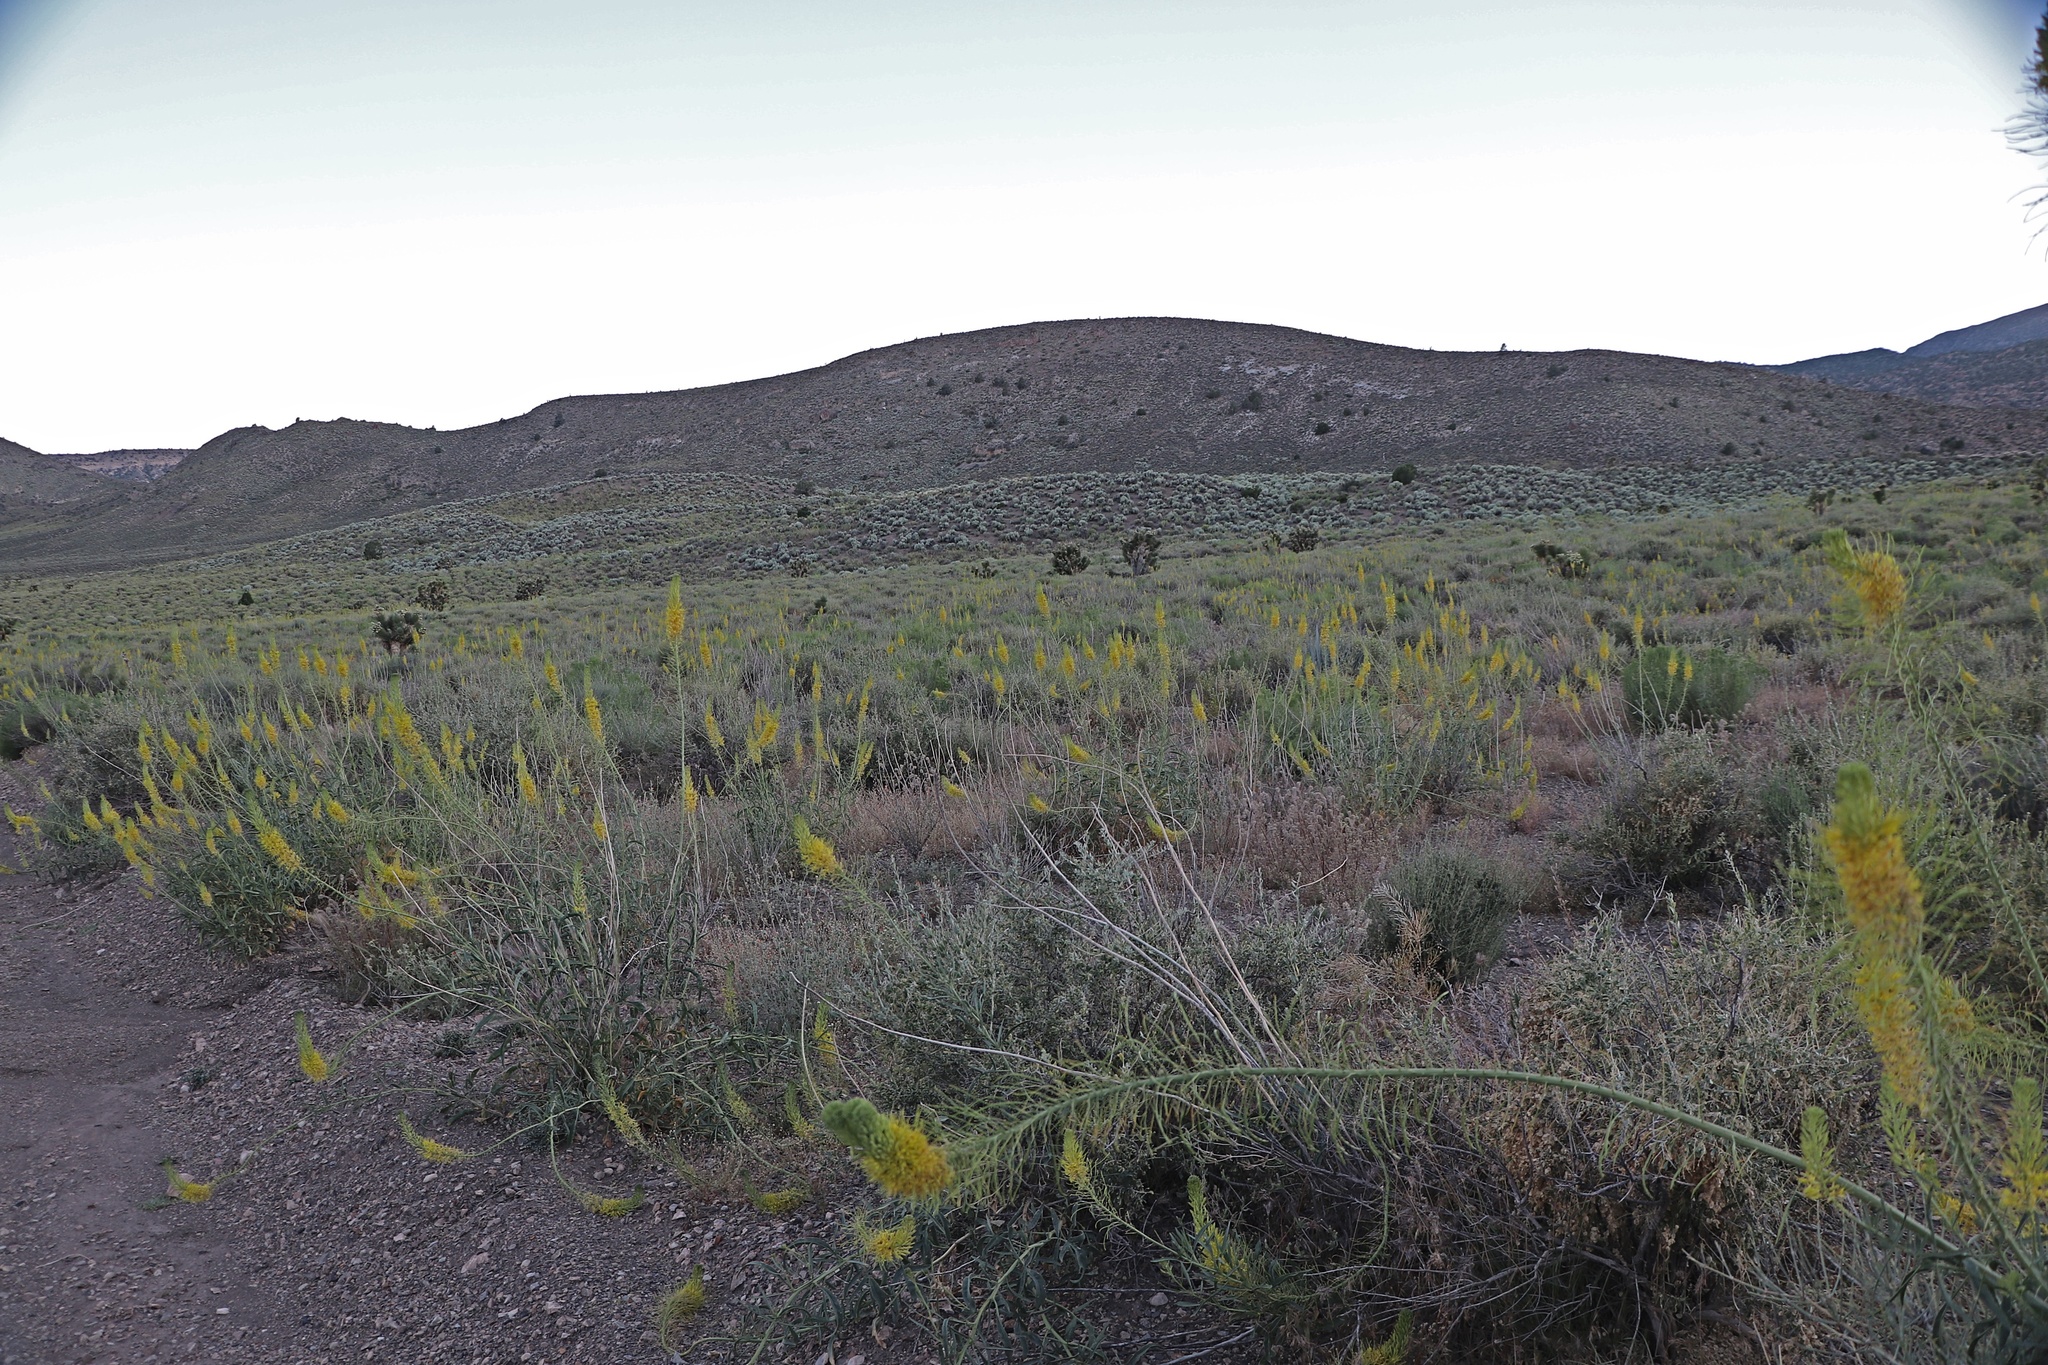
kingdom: Plantae
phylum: Tracheophyta
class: Magnoliopsida
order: Brassicales
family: Brassicaceae
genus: Stanleya
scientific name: Stanleya pinnata
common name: Prince's-plume
